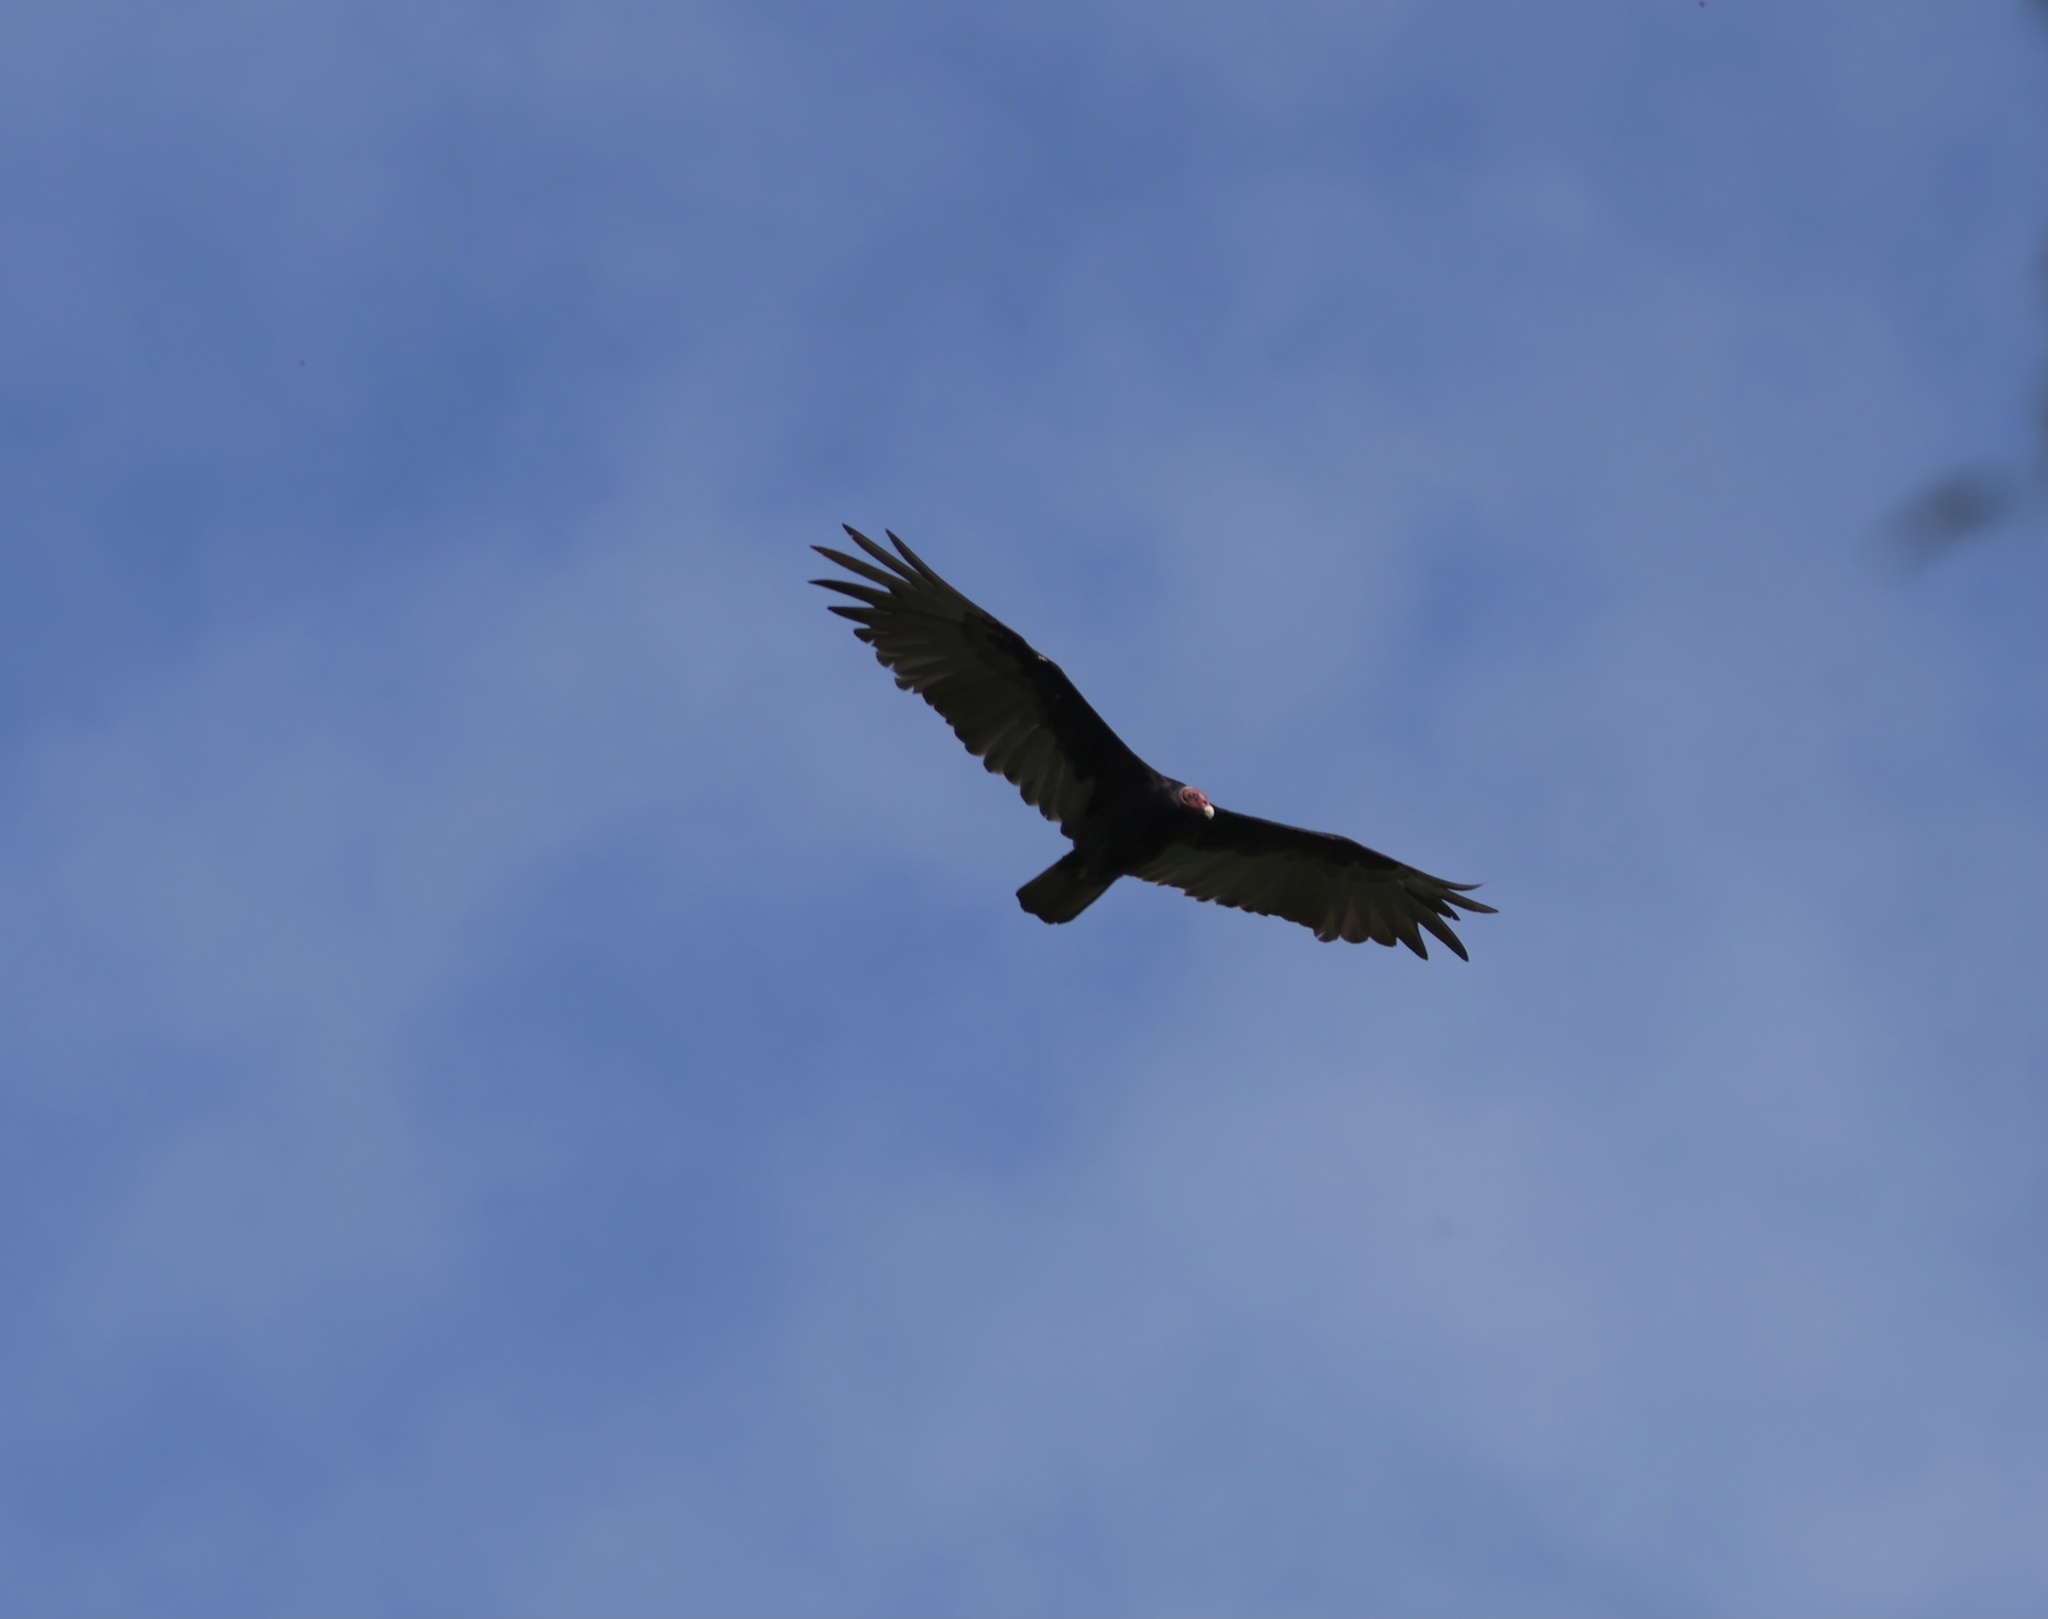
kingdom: Animalia
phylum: Chordata
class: Aves
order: Accipitriformes
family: Cathartidae
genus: Cathartes
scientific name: Cathartes aura
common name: Turkey vulture
